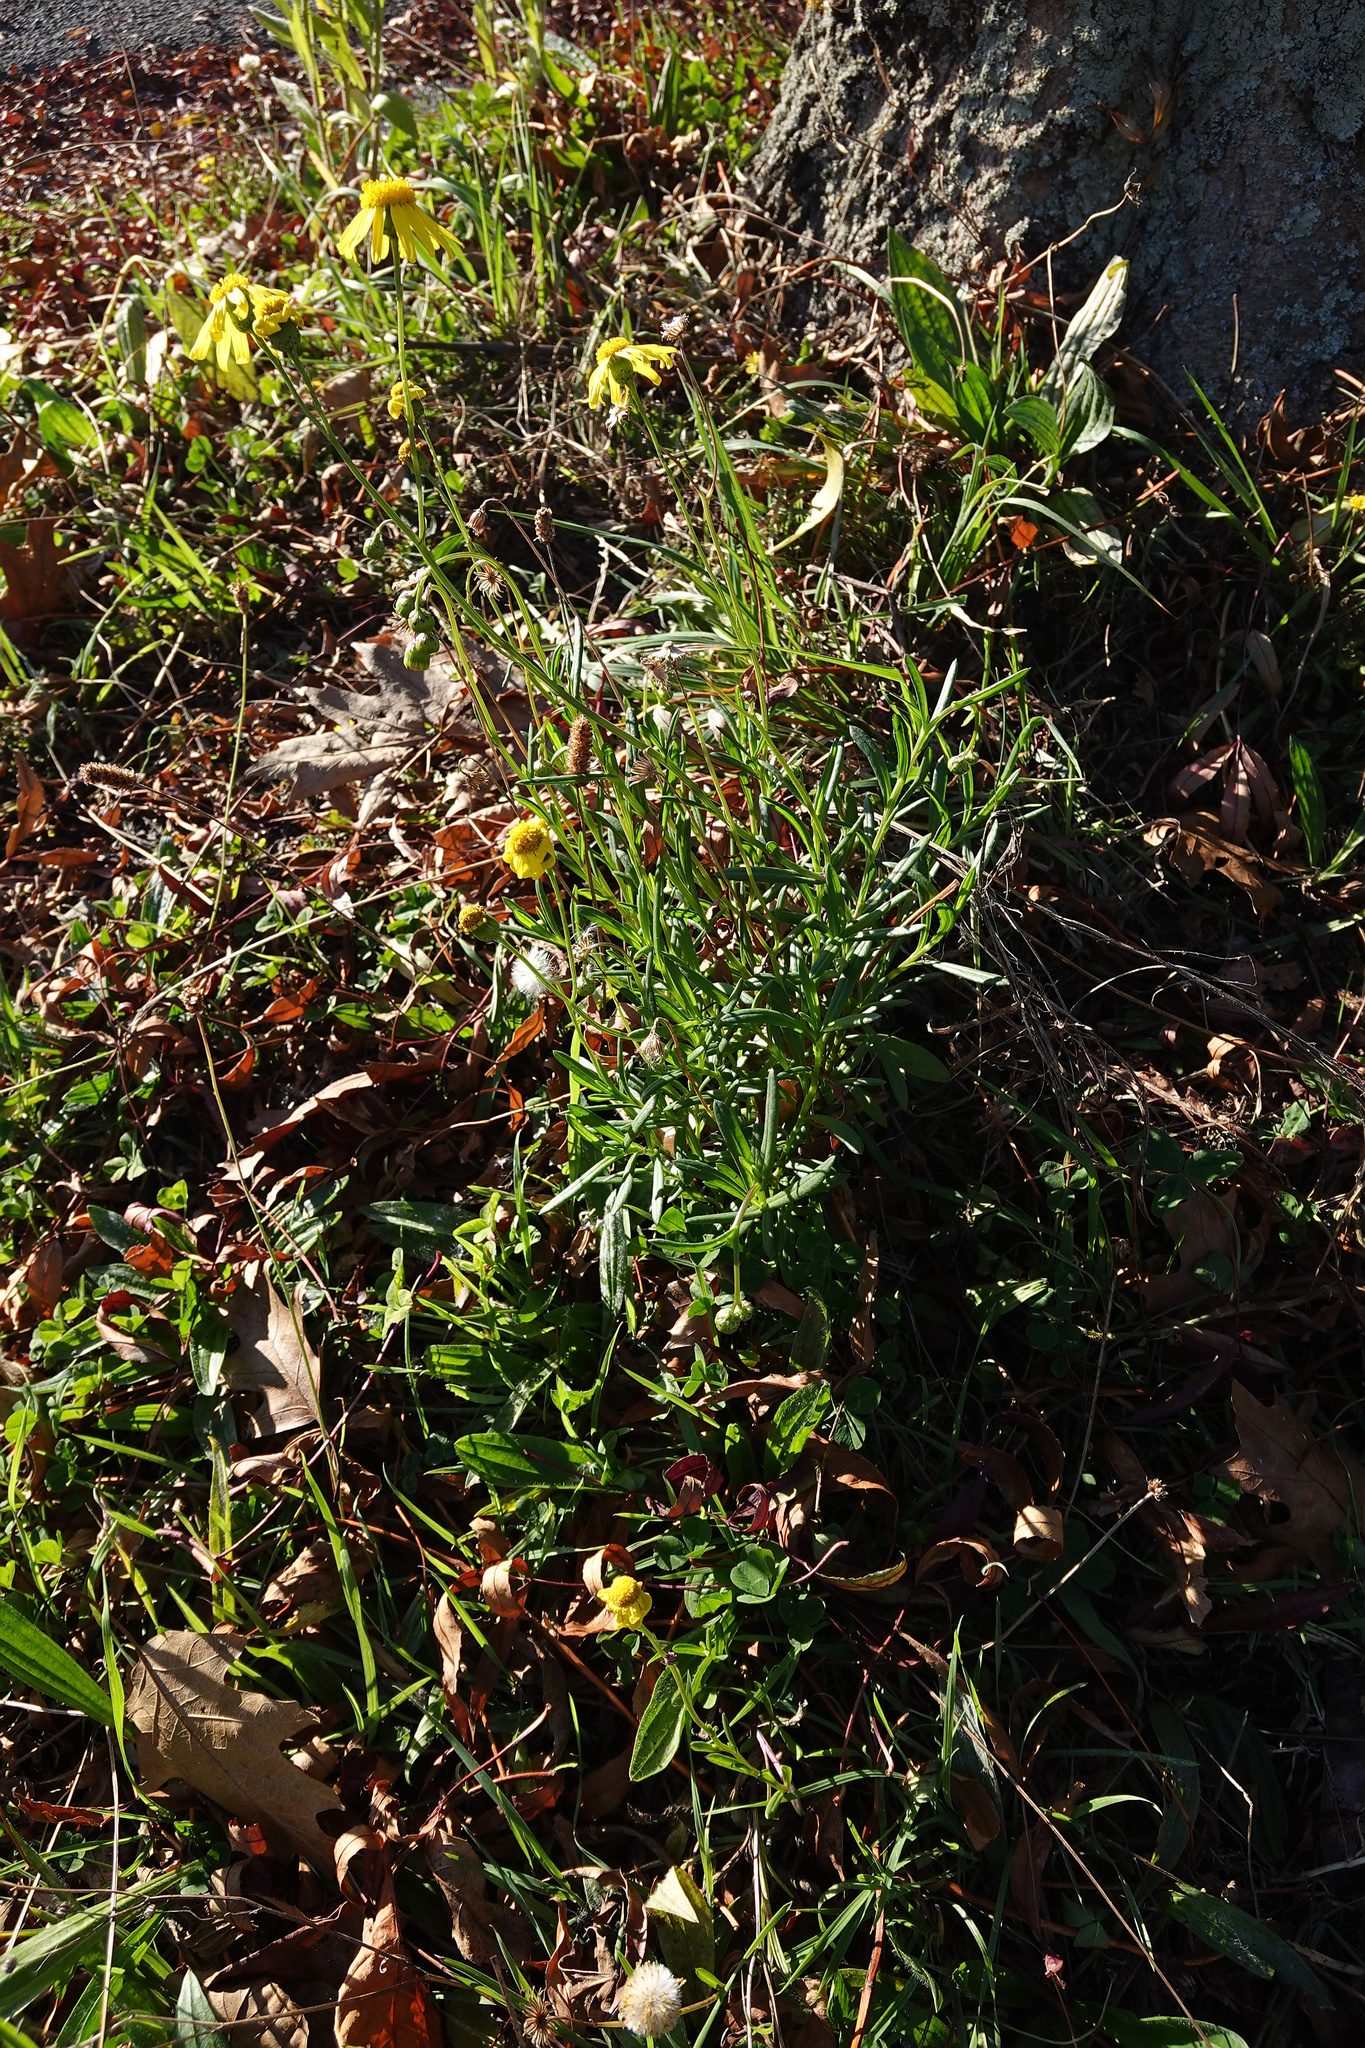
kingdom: Plantae
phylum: Tracheophyta
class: Magnoliopsida
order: Asterales
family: Asteraceae
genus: Senecio
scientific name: Senecio skirrhodon
